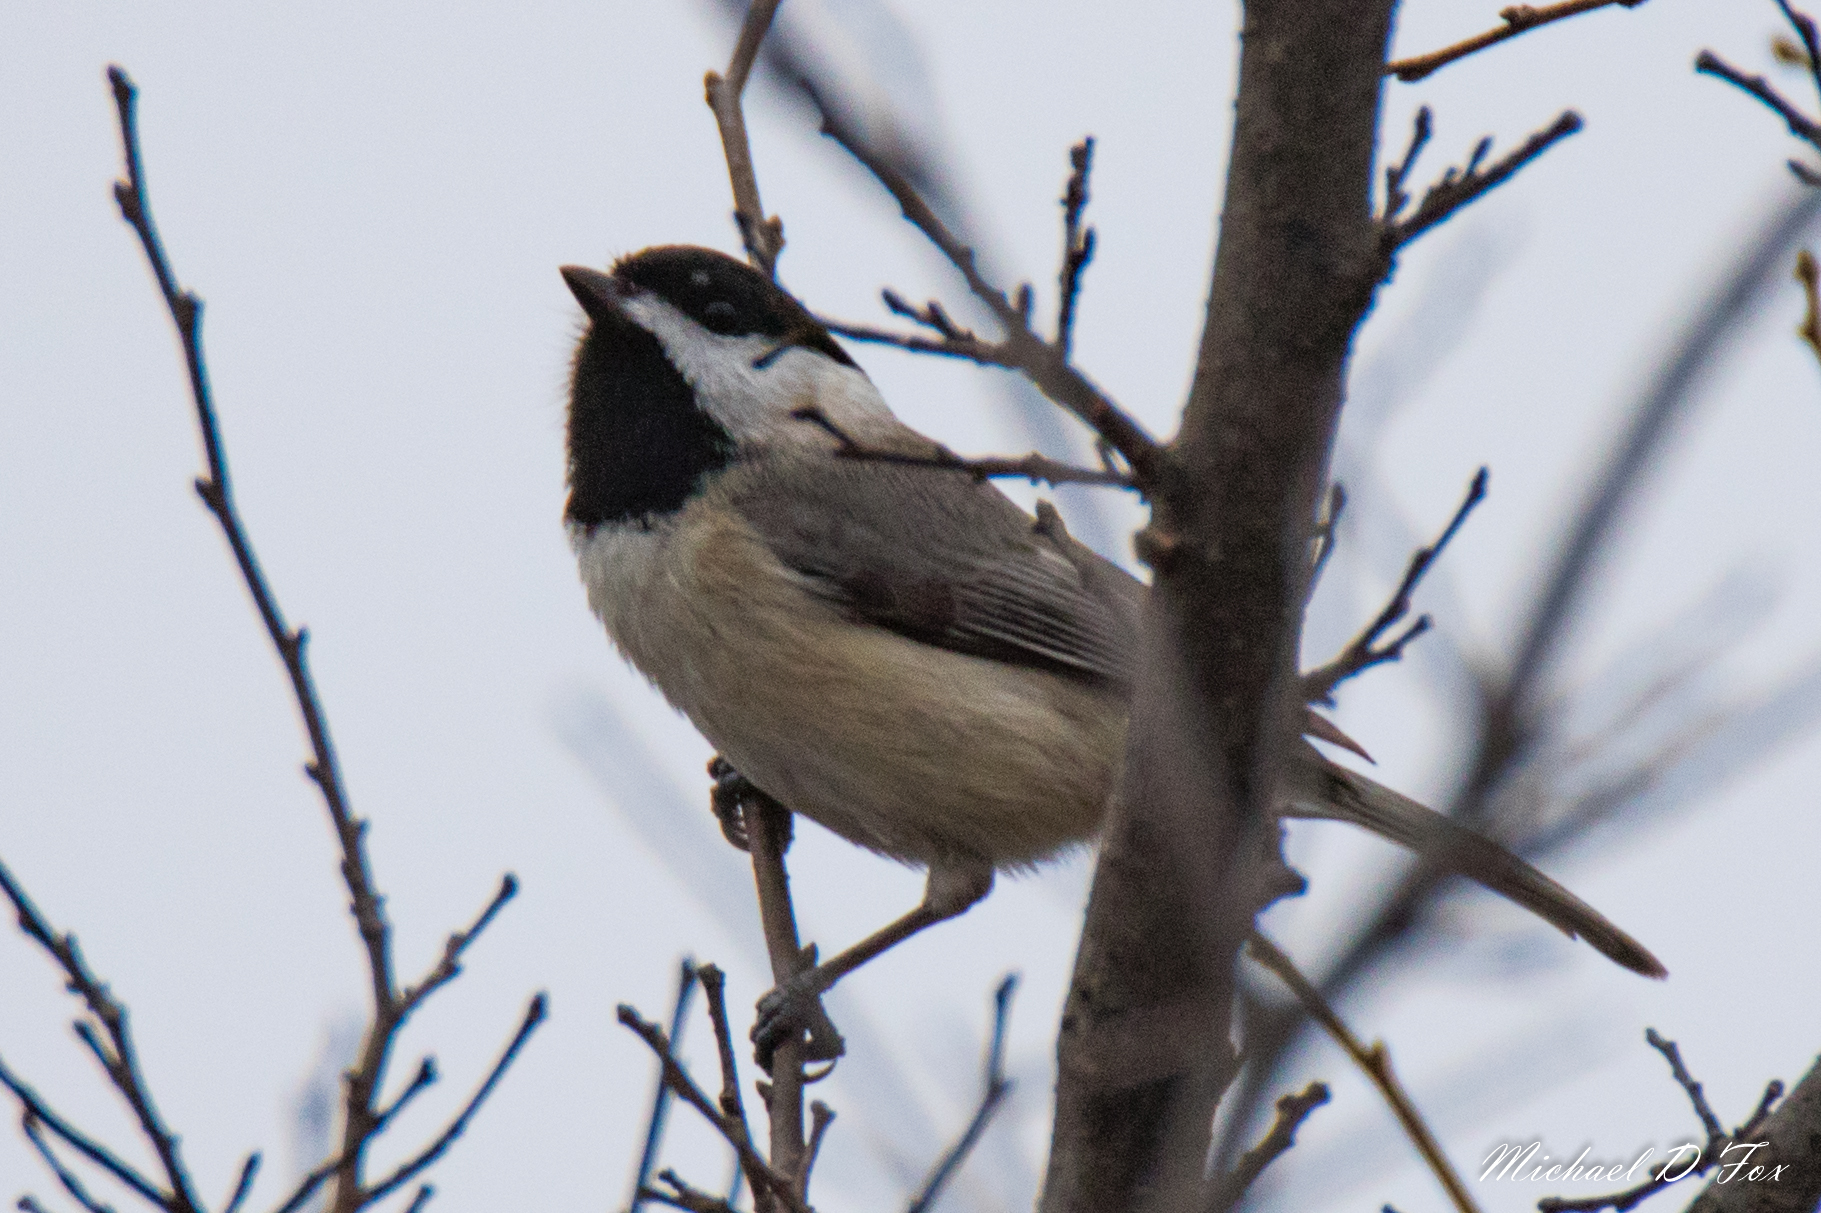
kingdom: Animalia
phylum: Chordata
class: Aves
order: Passeriformes
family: Paridae
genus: Poecile
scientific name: Poecile carolinensis
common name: Carolina chickadee
